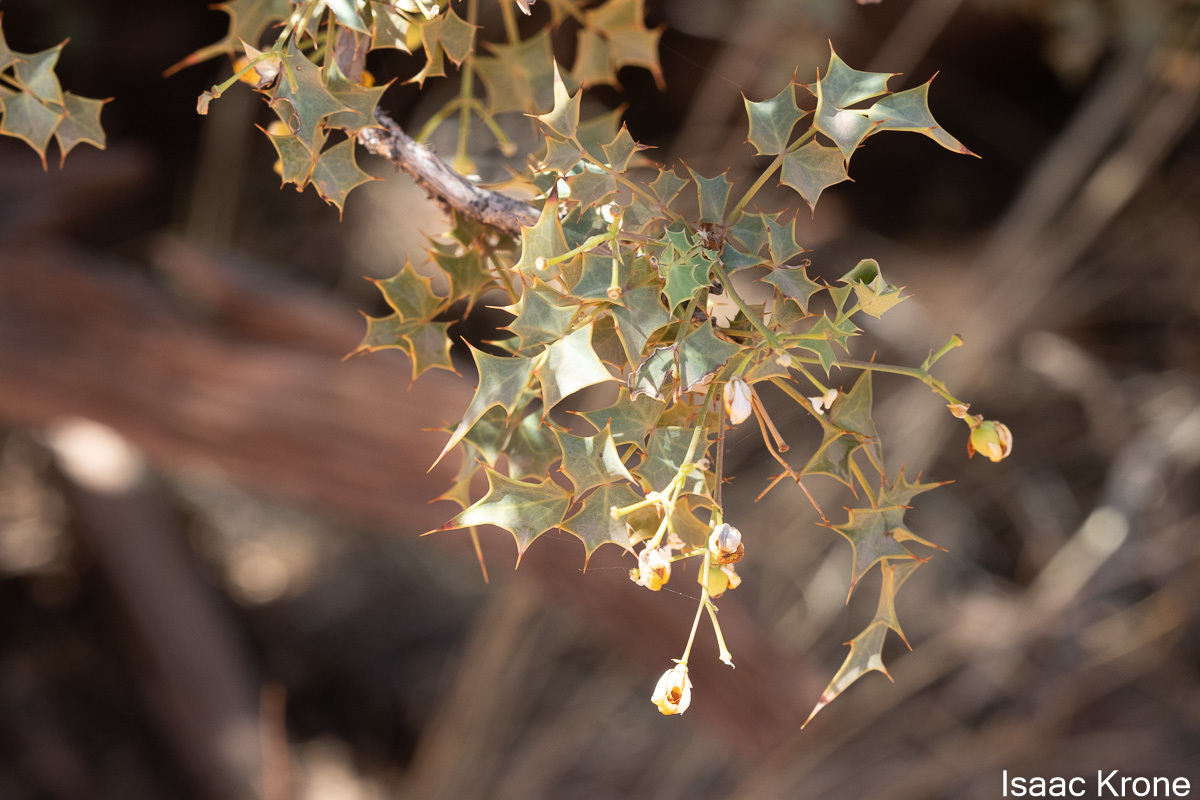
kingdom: Plantae
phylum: Tracheophyta
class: Magnoliopsida
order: Ranunculales
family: Berberidaceae
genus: Alloberberis
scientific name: Alloberberis fremontii
